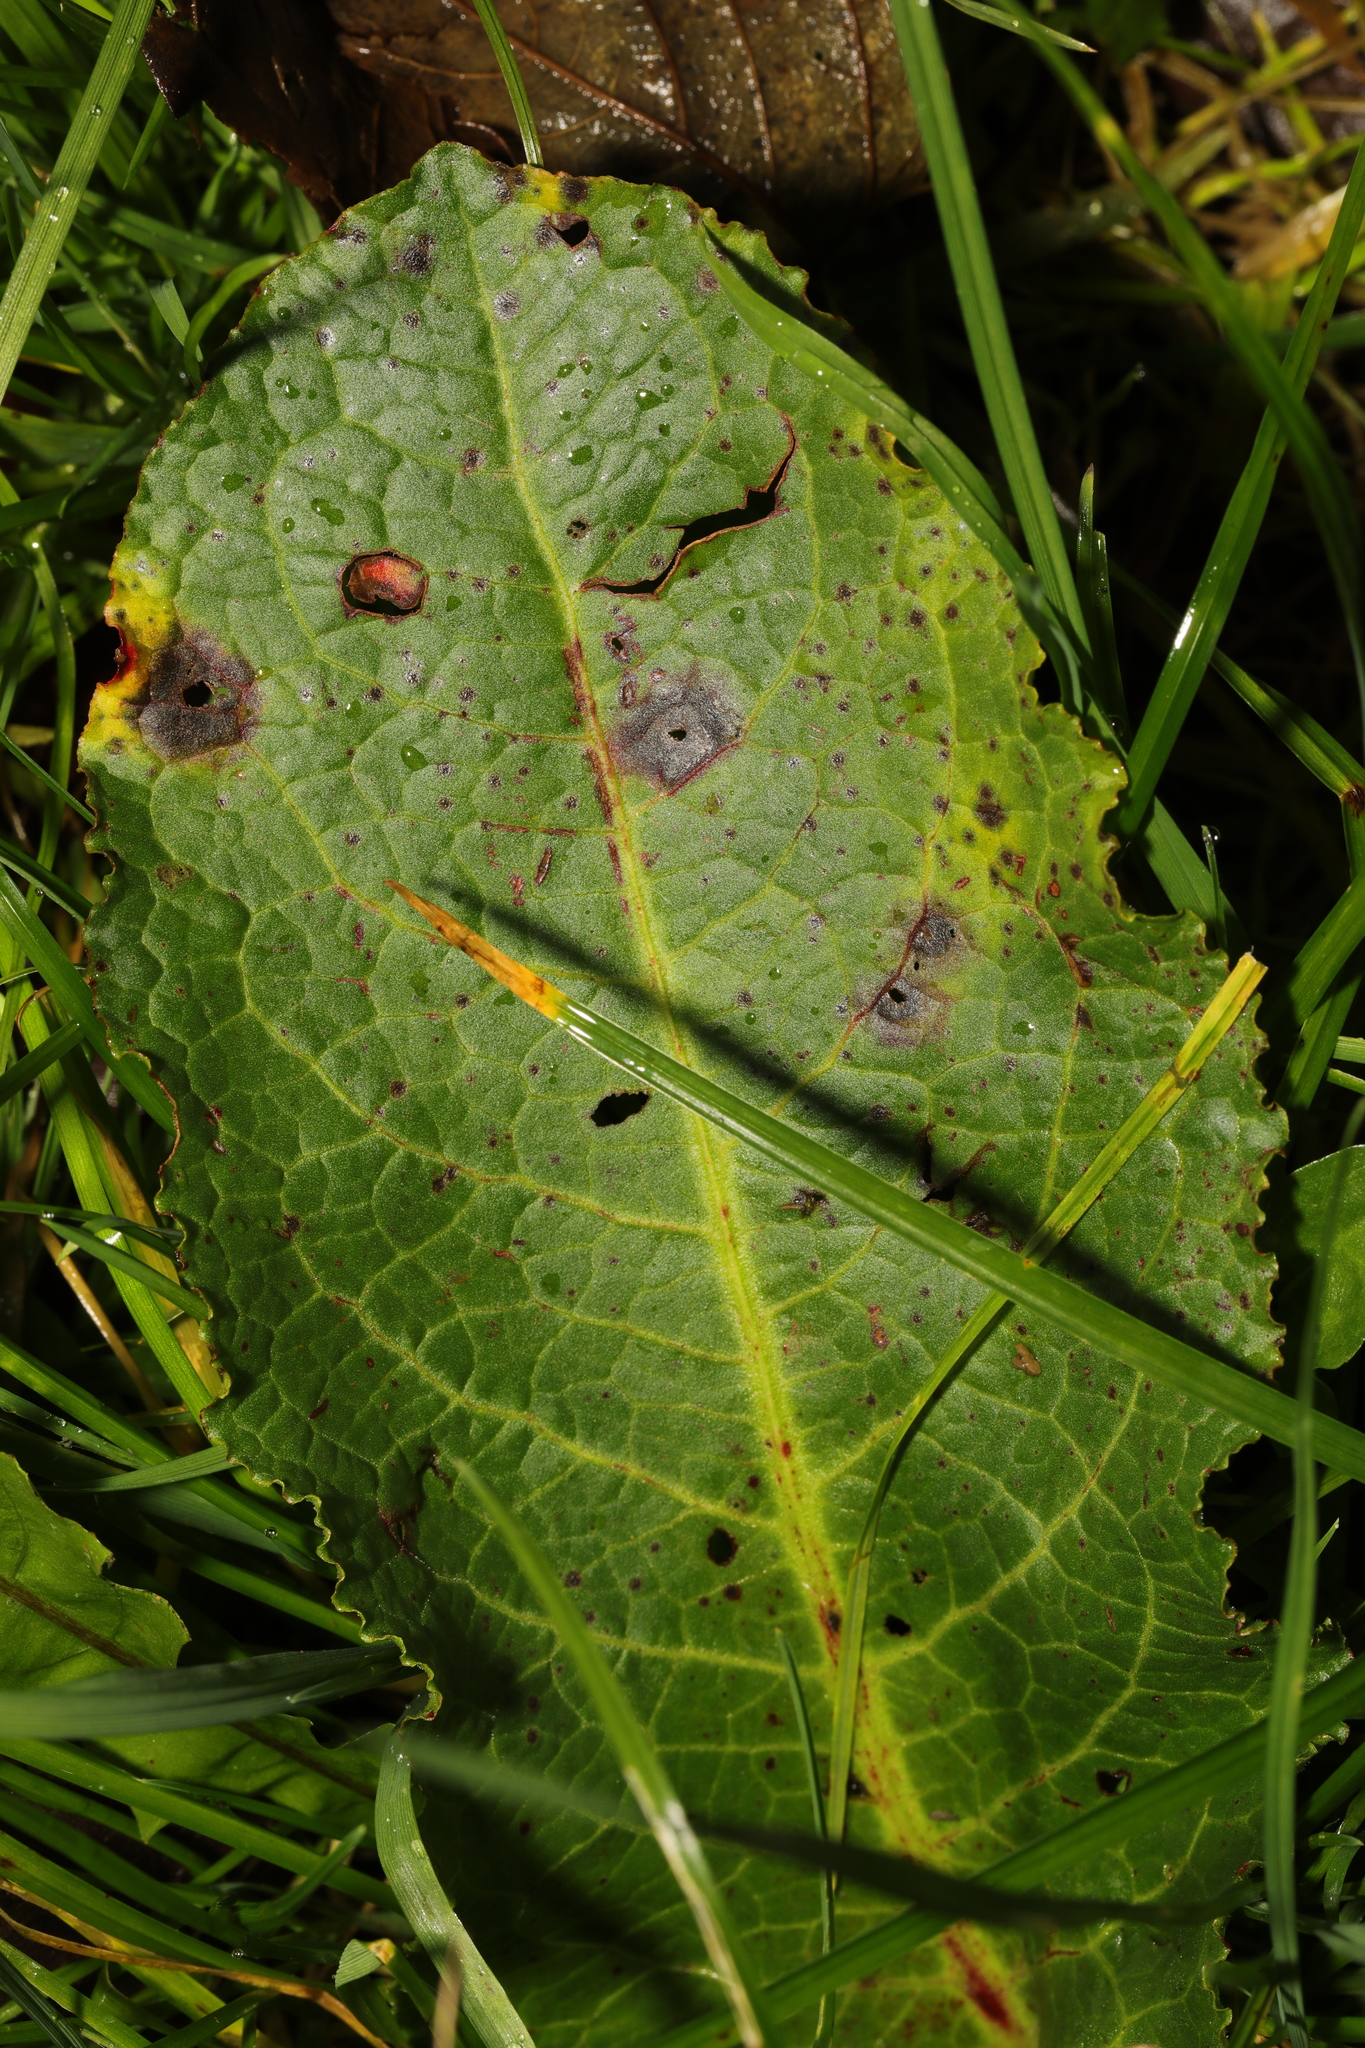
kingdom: Plantae
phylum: Tracheophyta
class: Magnoliopsida
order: Caryophyllales
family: Polygonaceae
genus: Rumex
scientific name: Rumex obtusifolius
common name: Bitter dock
